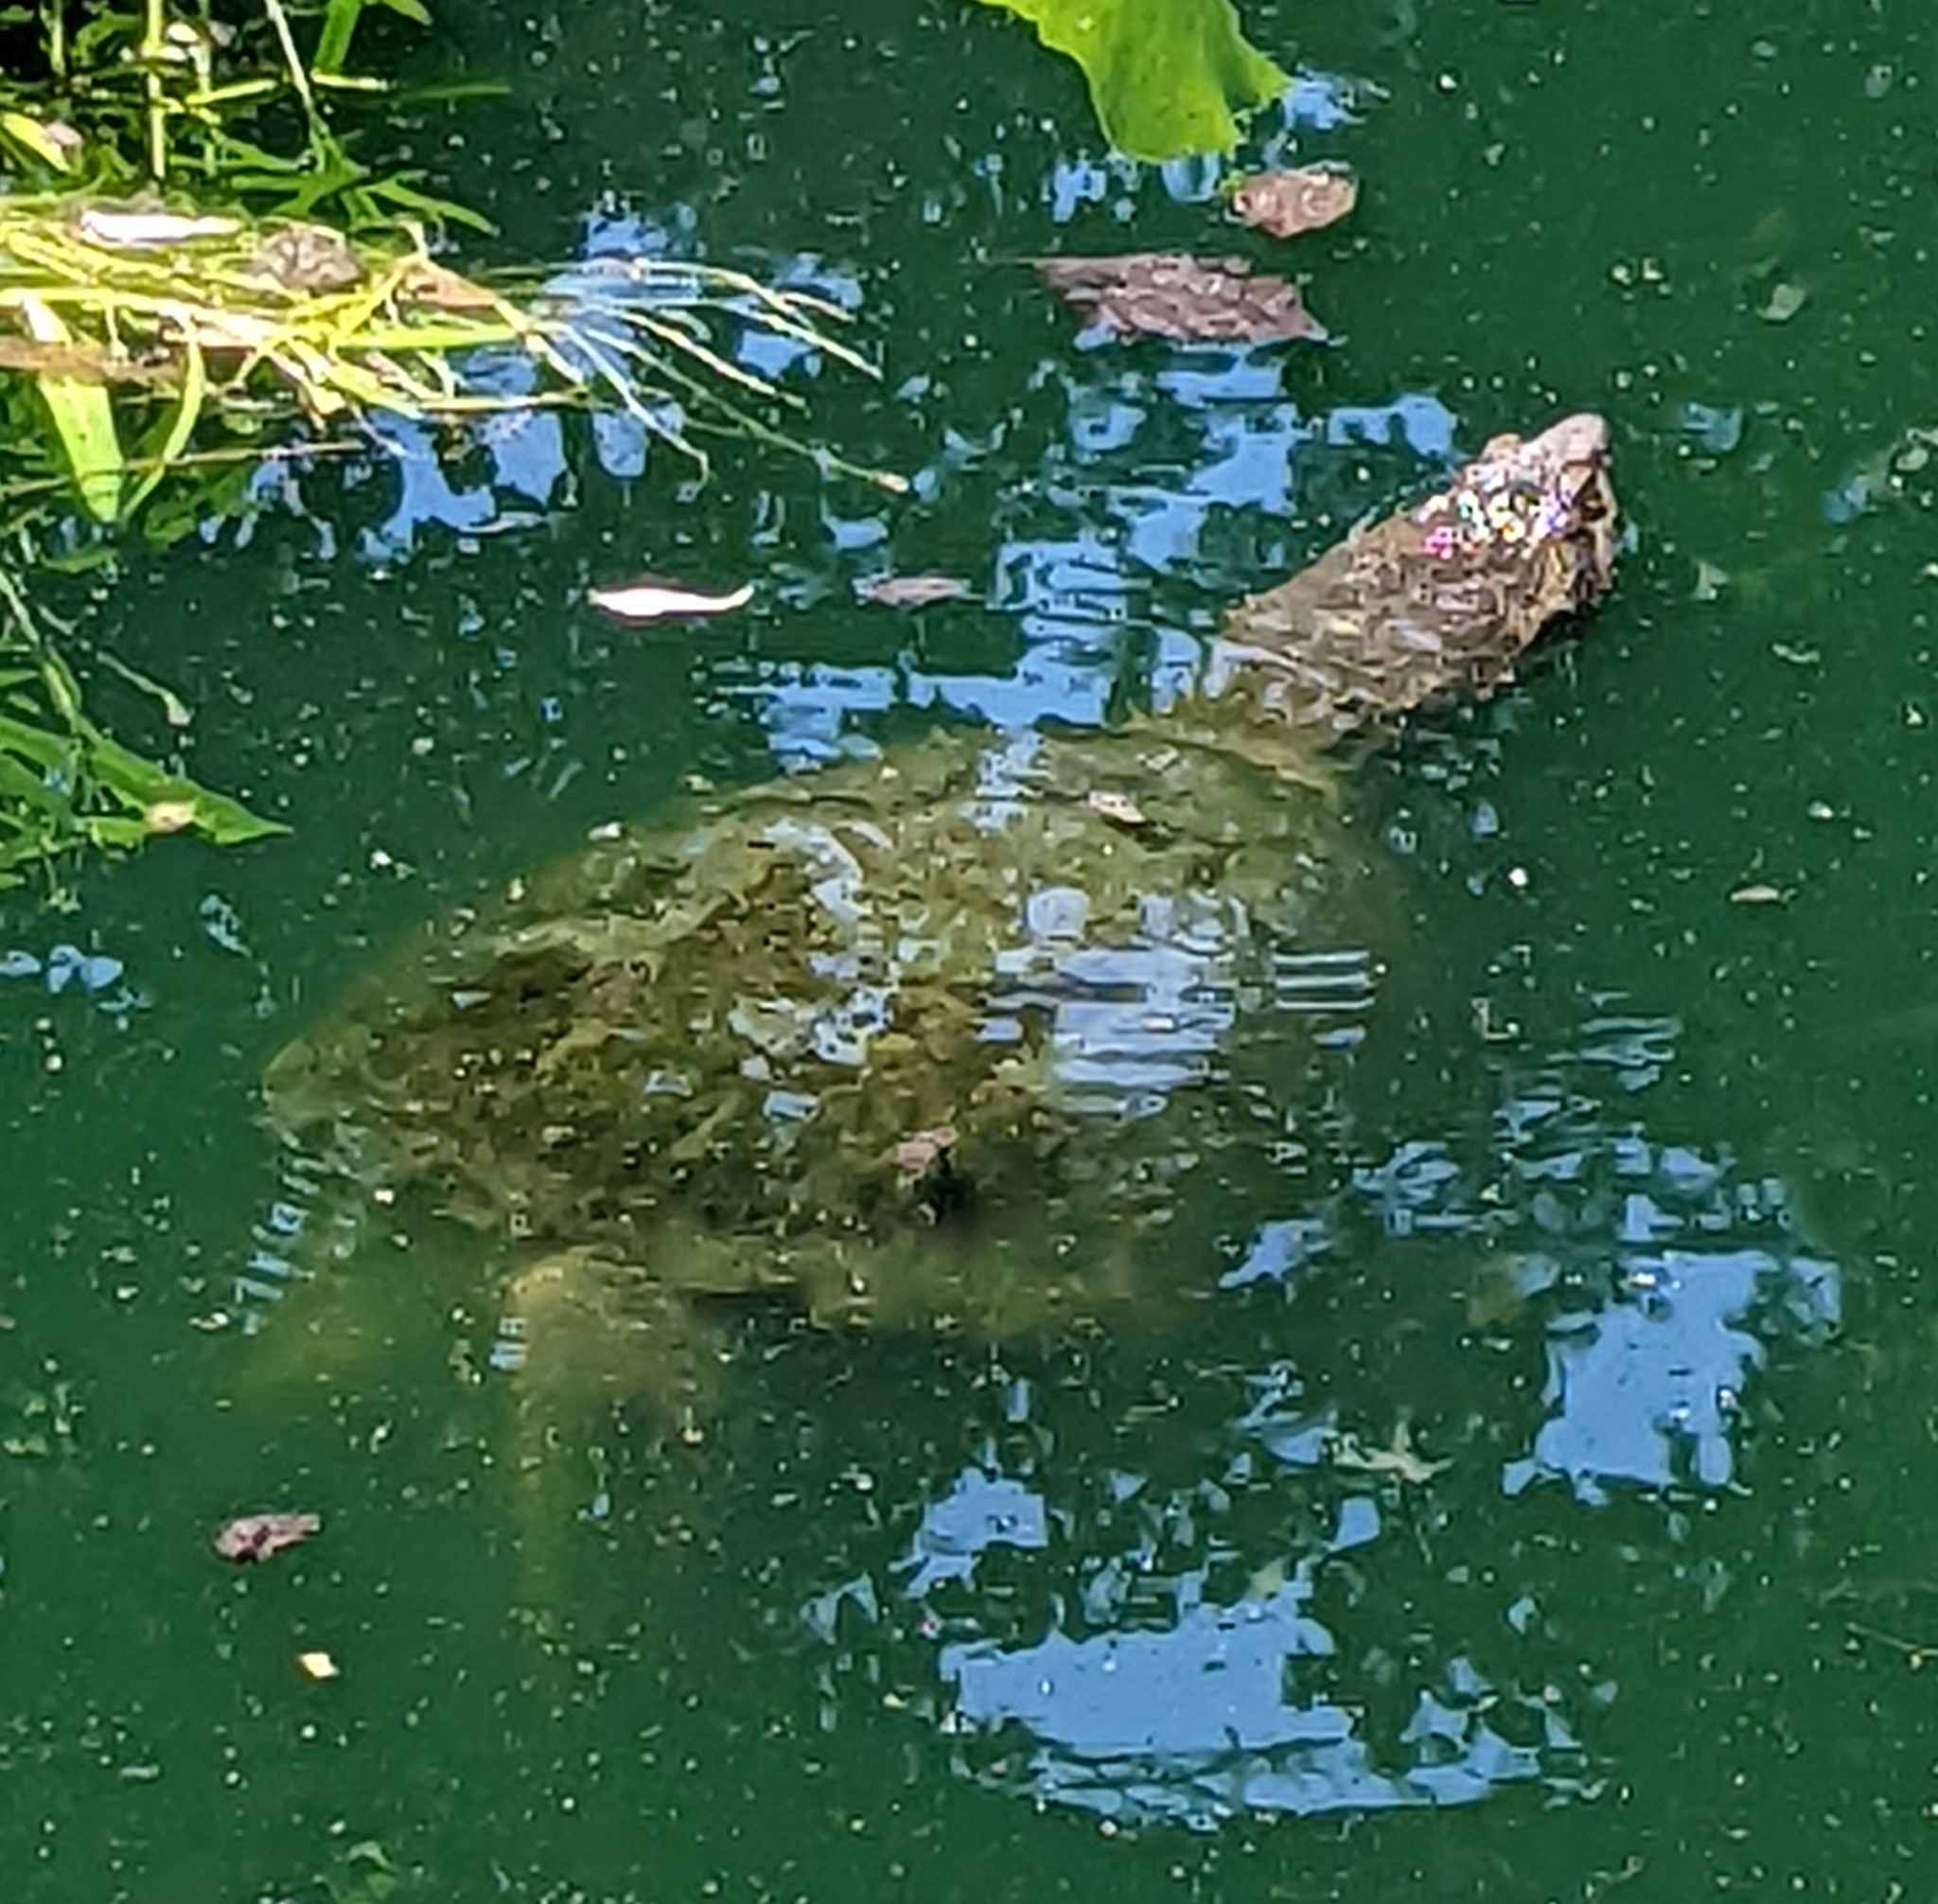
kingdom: Animalia
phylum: Chordata
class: Testudines
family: Chelydridae
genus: Chelydra
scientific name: Chelydra serpentina
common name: Common snapping turtle
